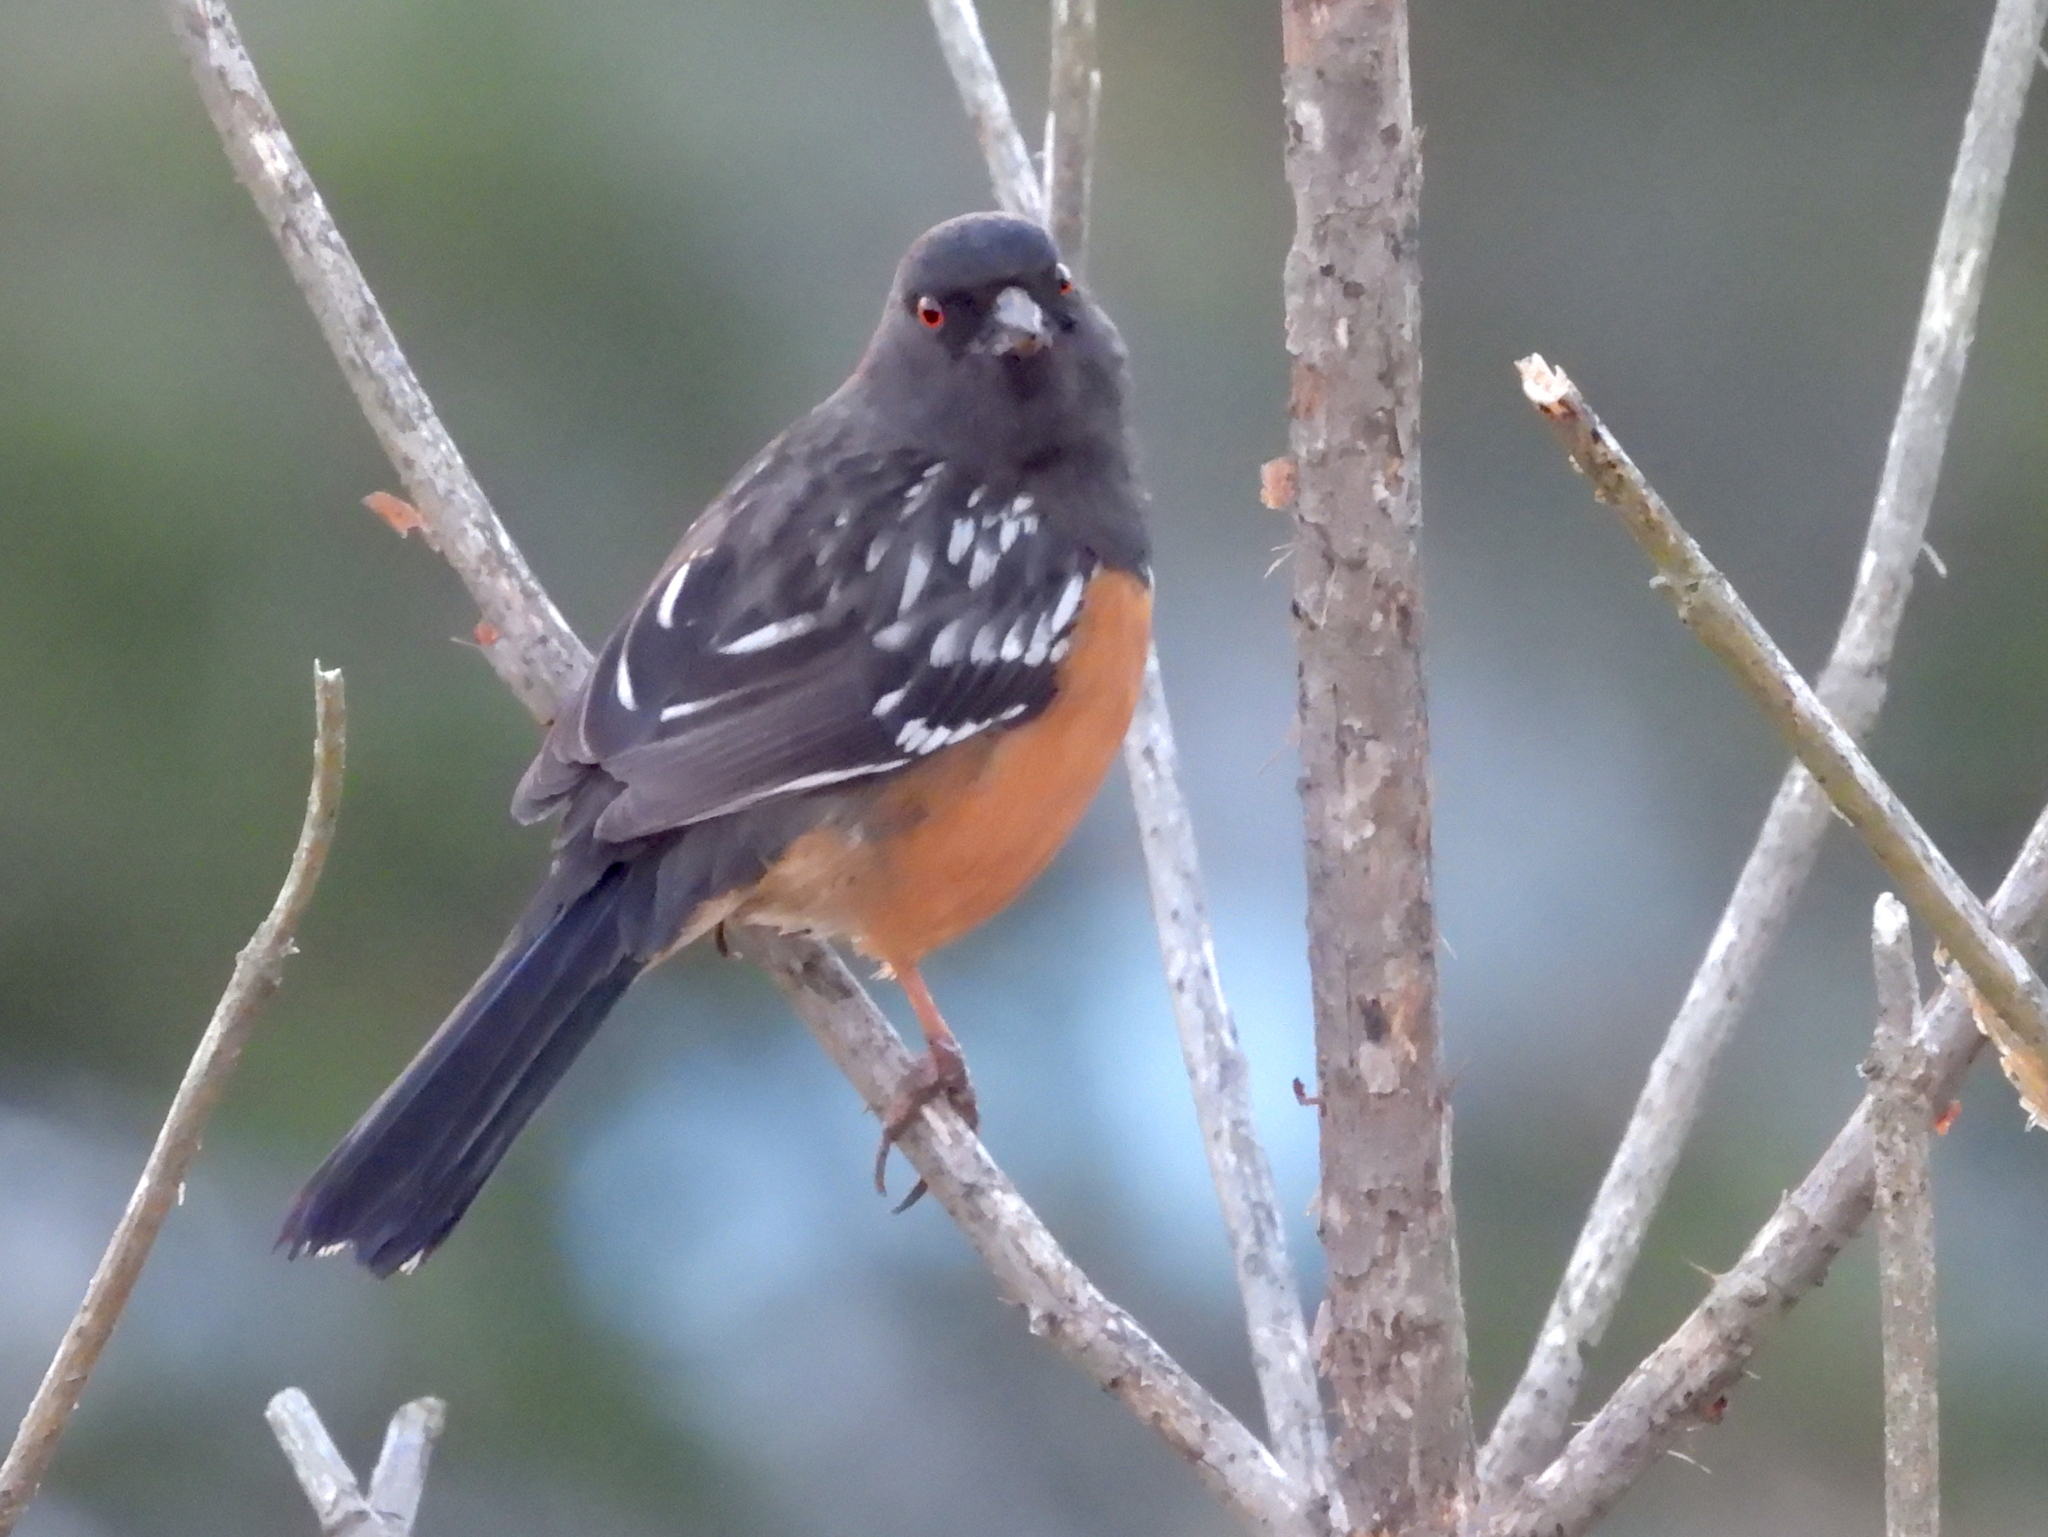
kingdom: Animalia
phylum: Chordata
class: Aves
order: Passeriformes
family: Passerellidae
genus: Pipilo
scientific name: Pipilo maculatus
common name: Spotted towhee
